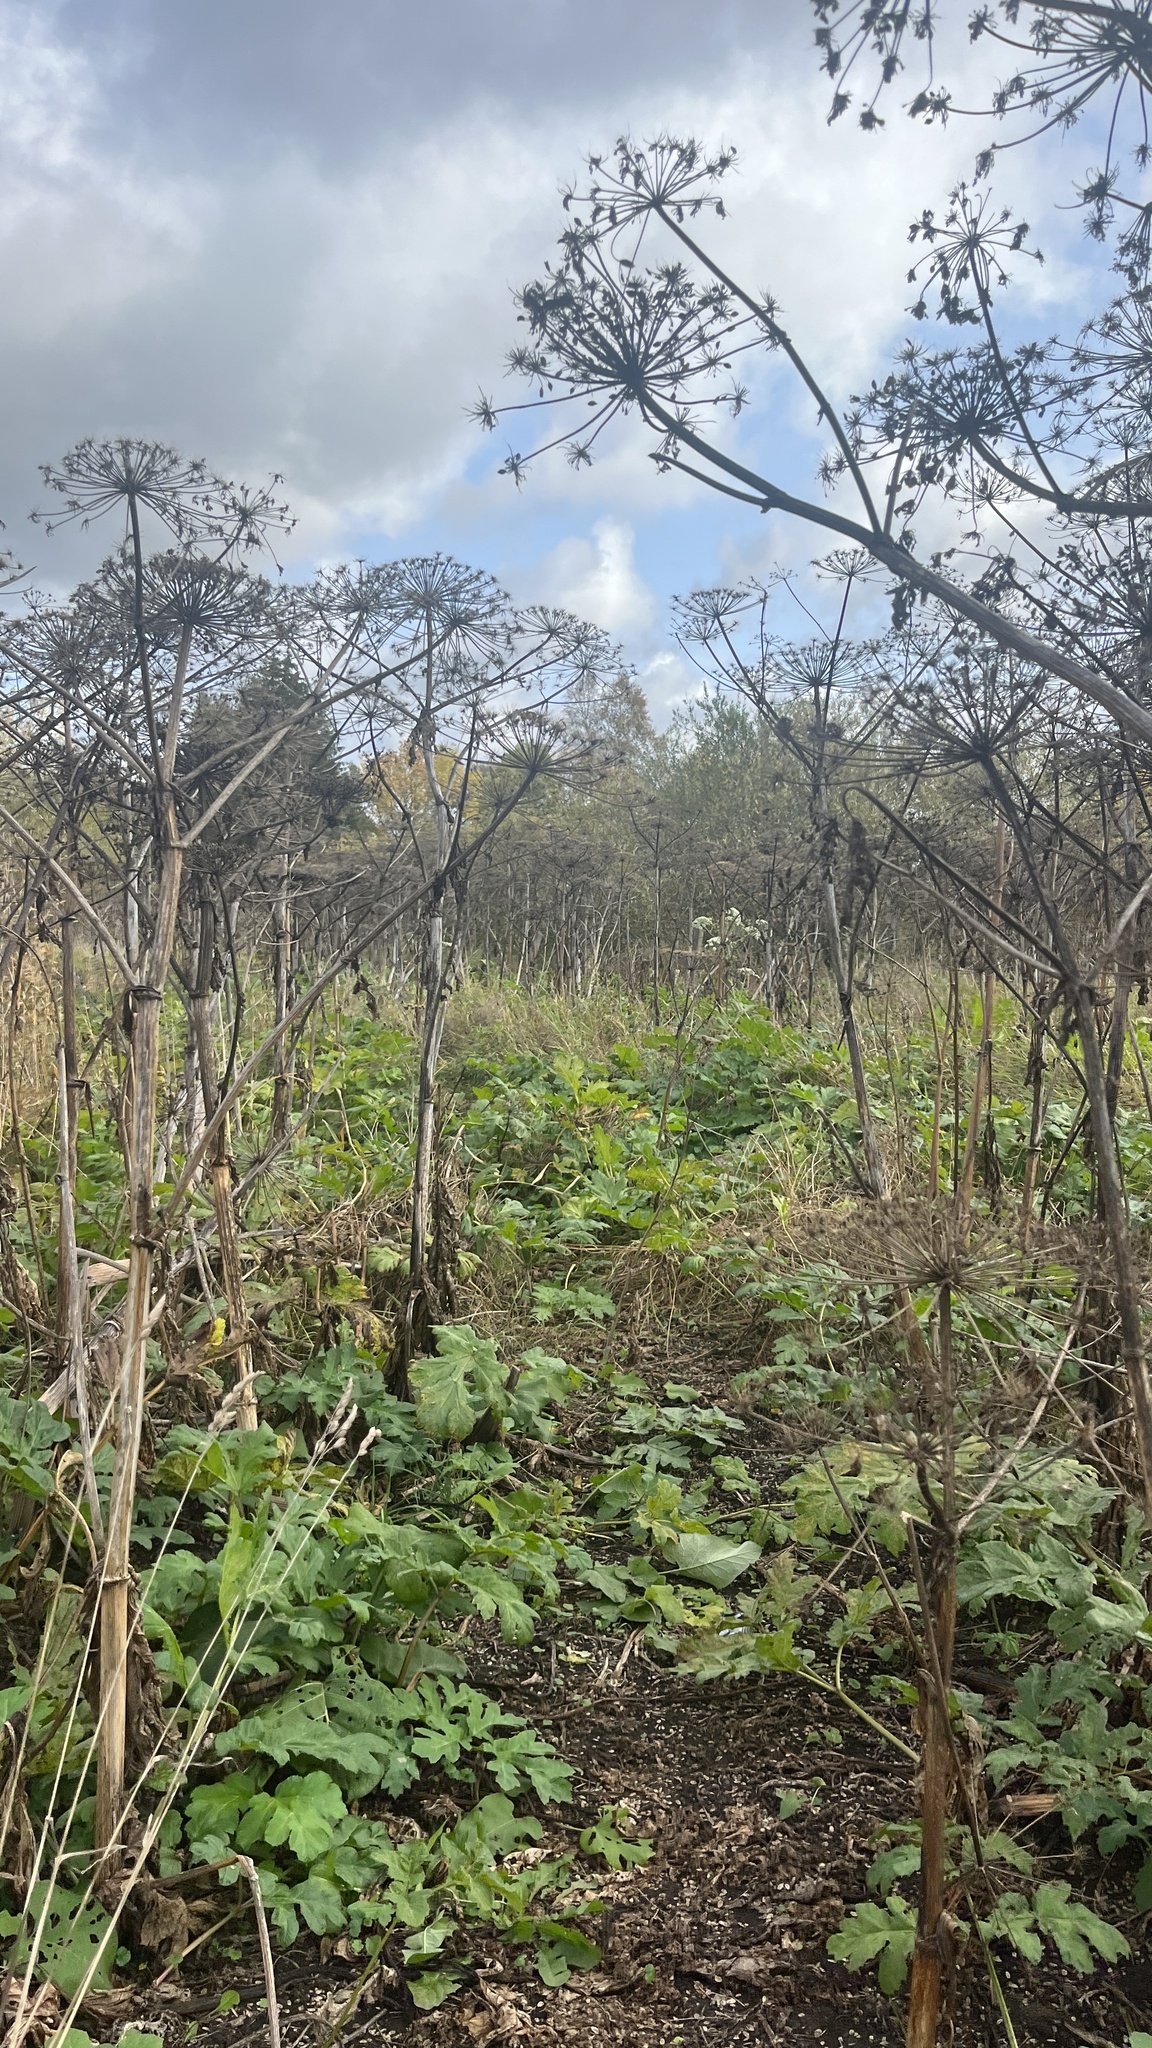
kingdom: Plantae
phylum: Tracheophyta
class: Magnoliopsida
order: Apiales
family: Apiaceae
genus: Heracleum
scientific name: Heracleum sosnowskyi
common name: Sosnowsky's hogweed
